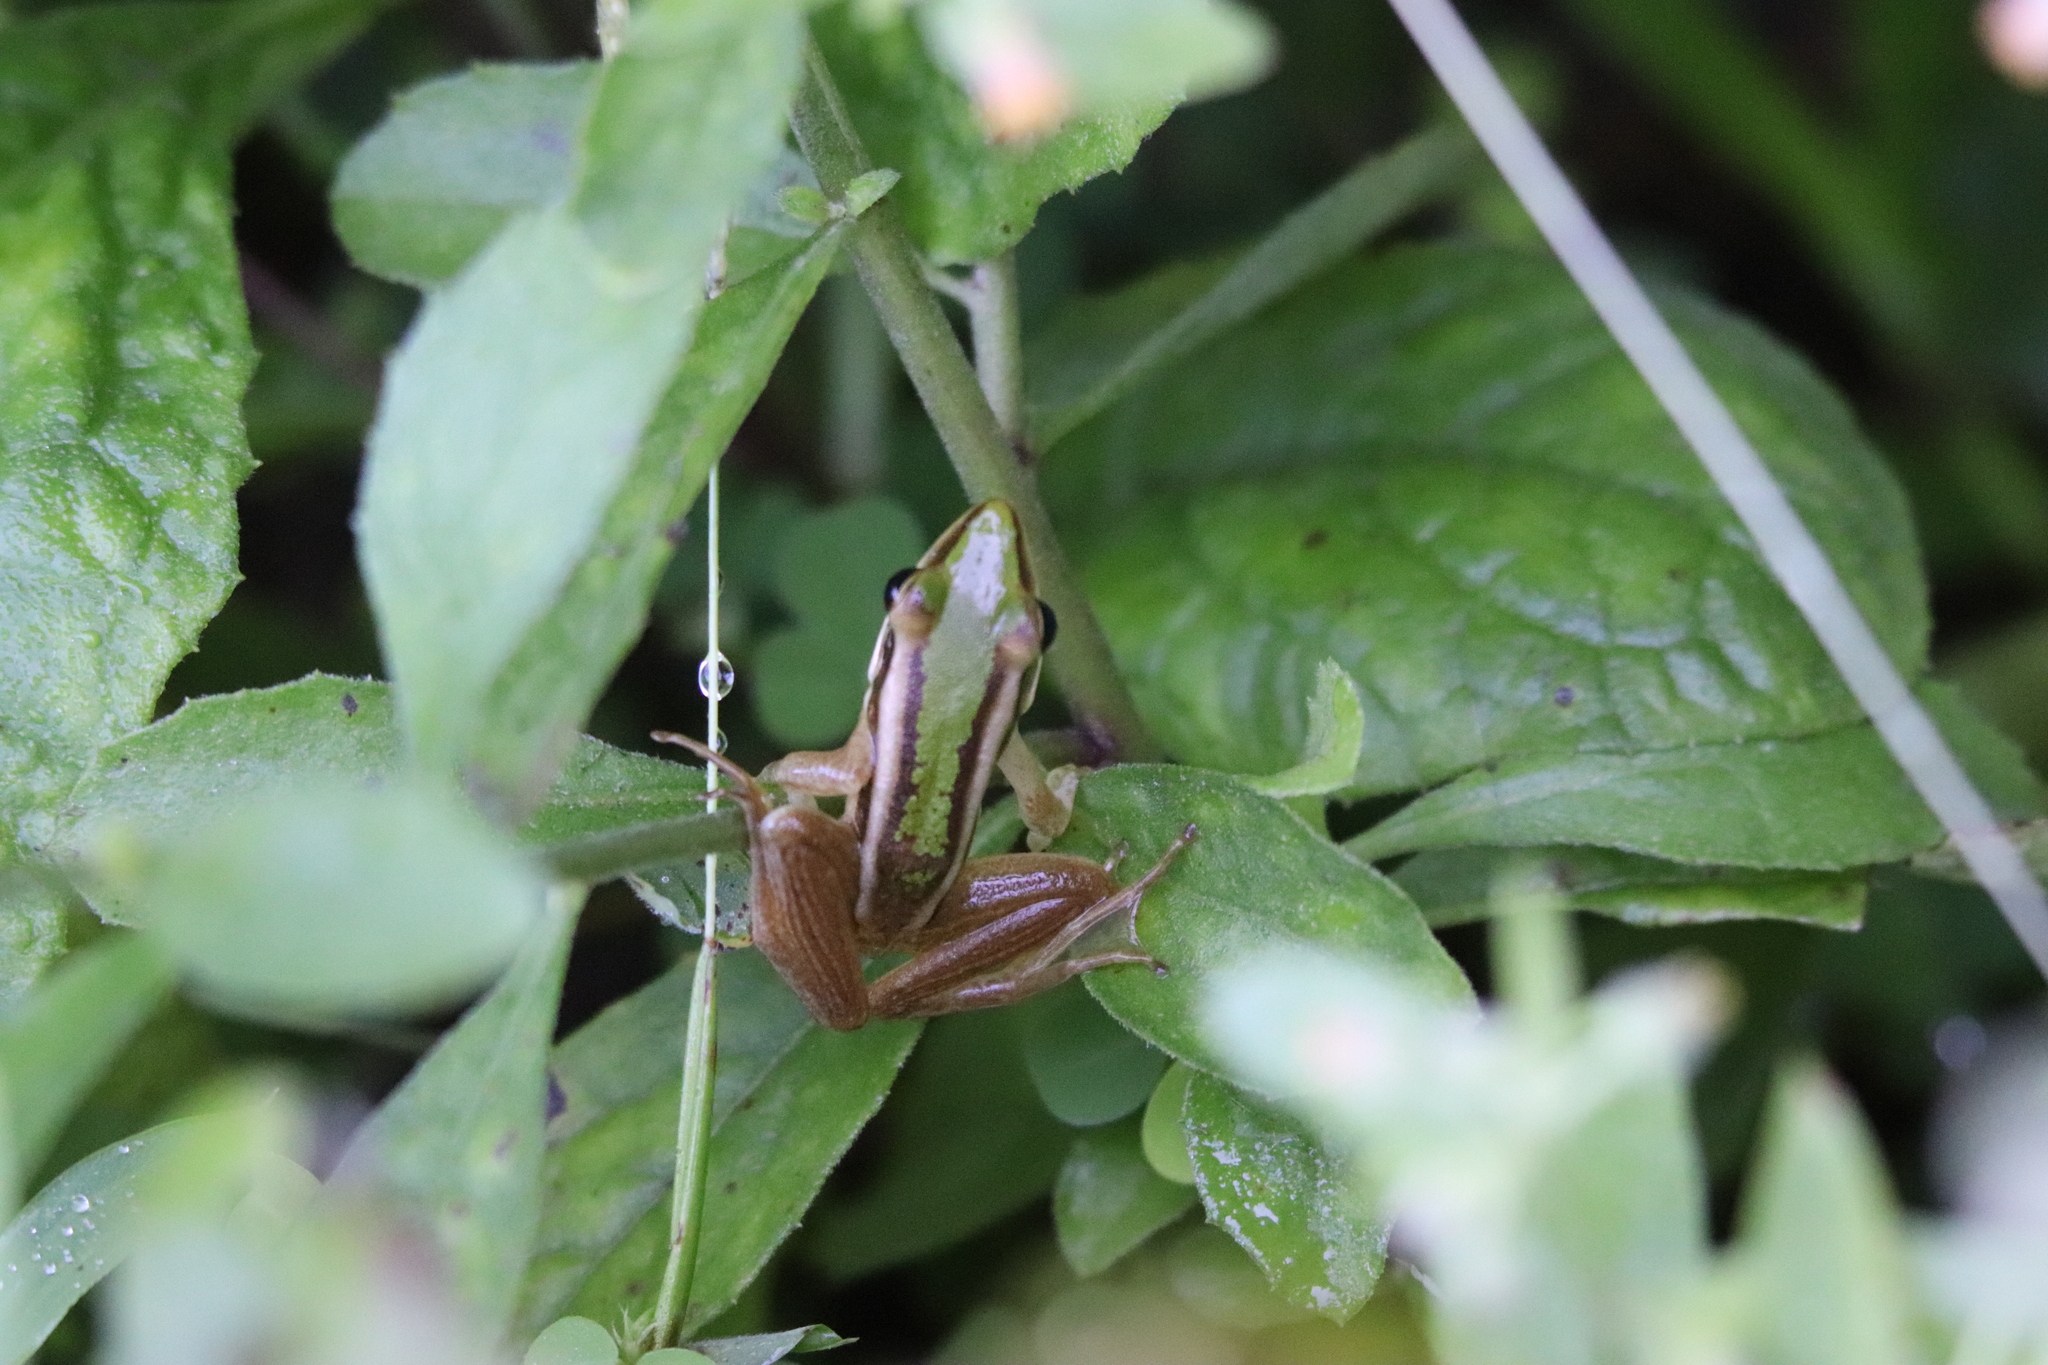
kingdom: Animalia
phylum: Chordata
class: Amphibia
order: Anura
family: Ranidae
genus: Hylarana
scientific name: Hylarana erythraea
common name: Common green frog/green paddy frog/leaf frog
